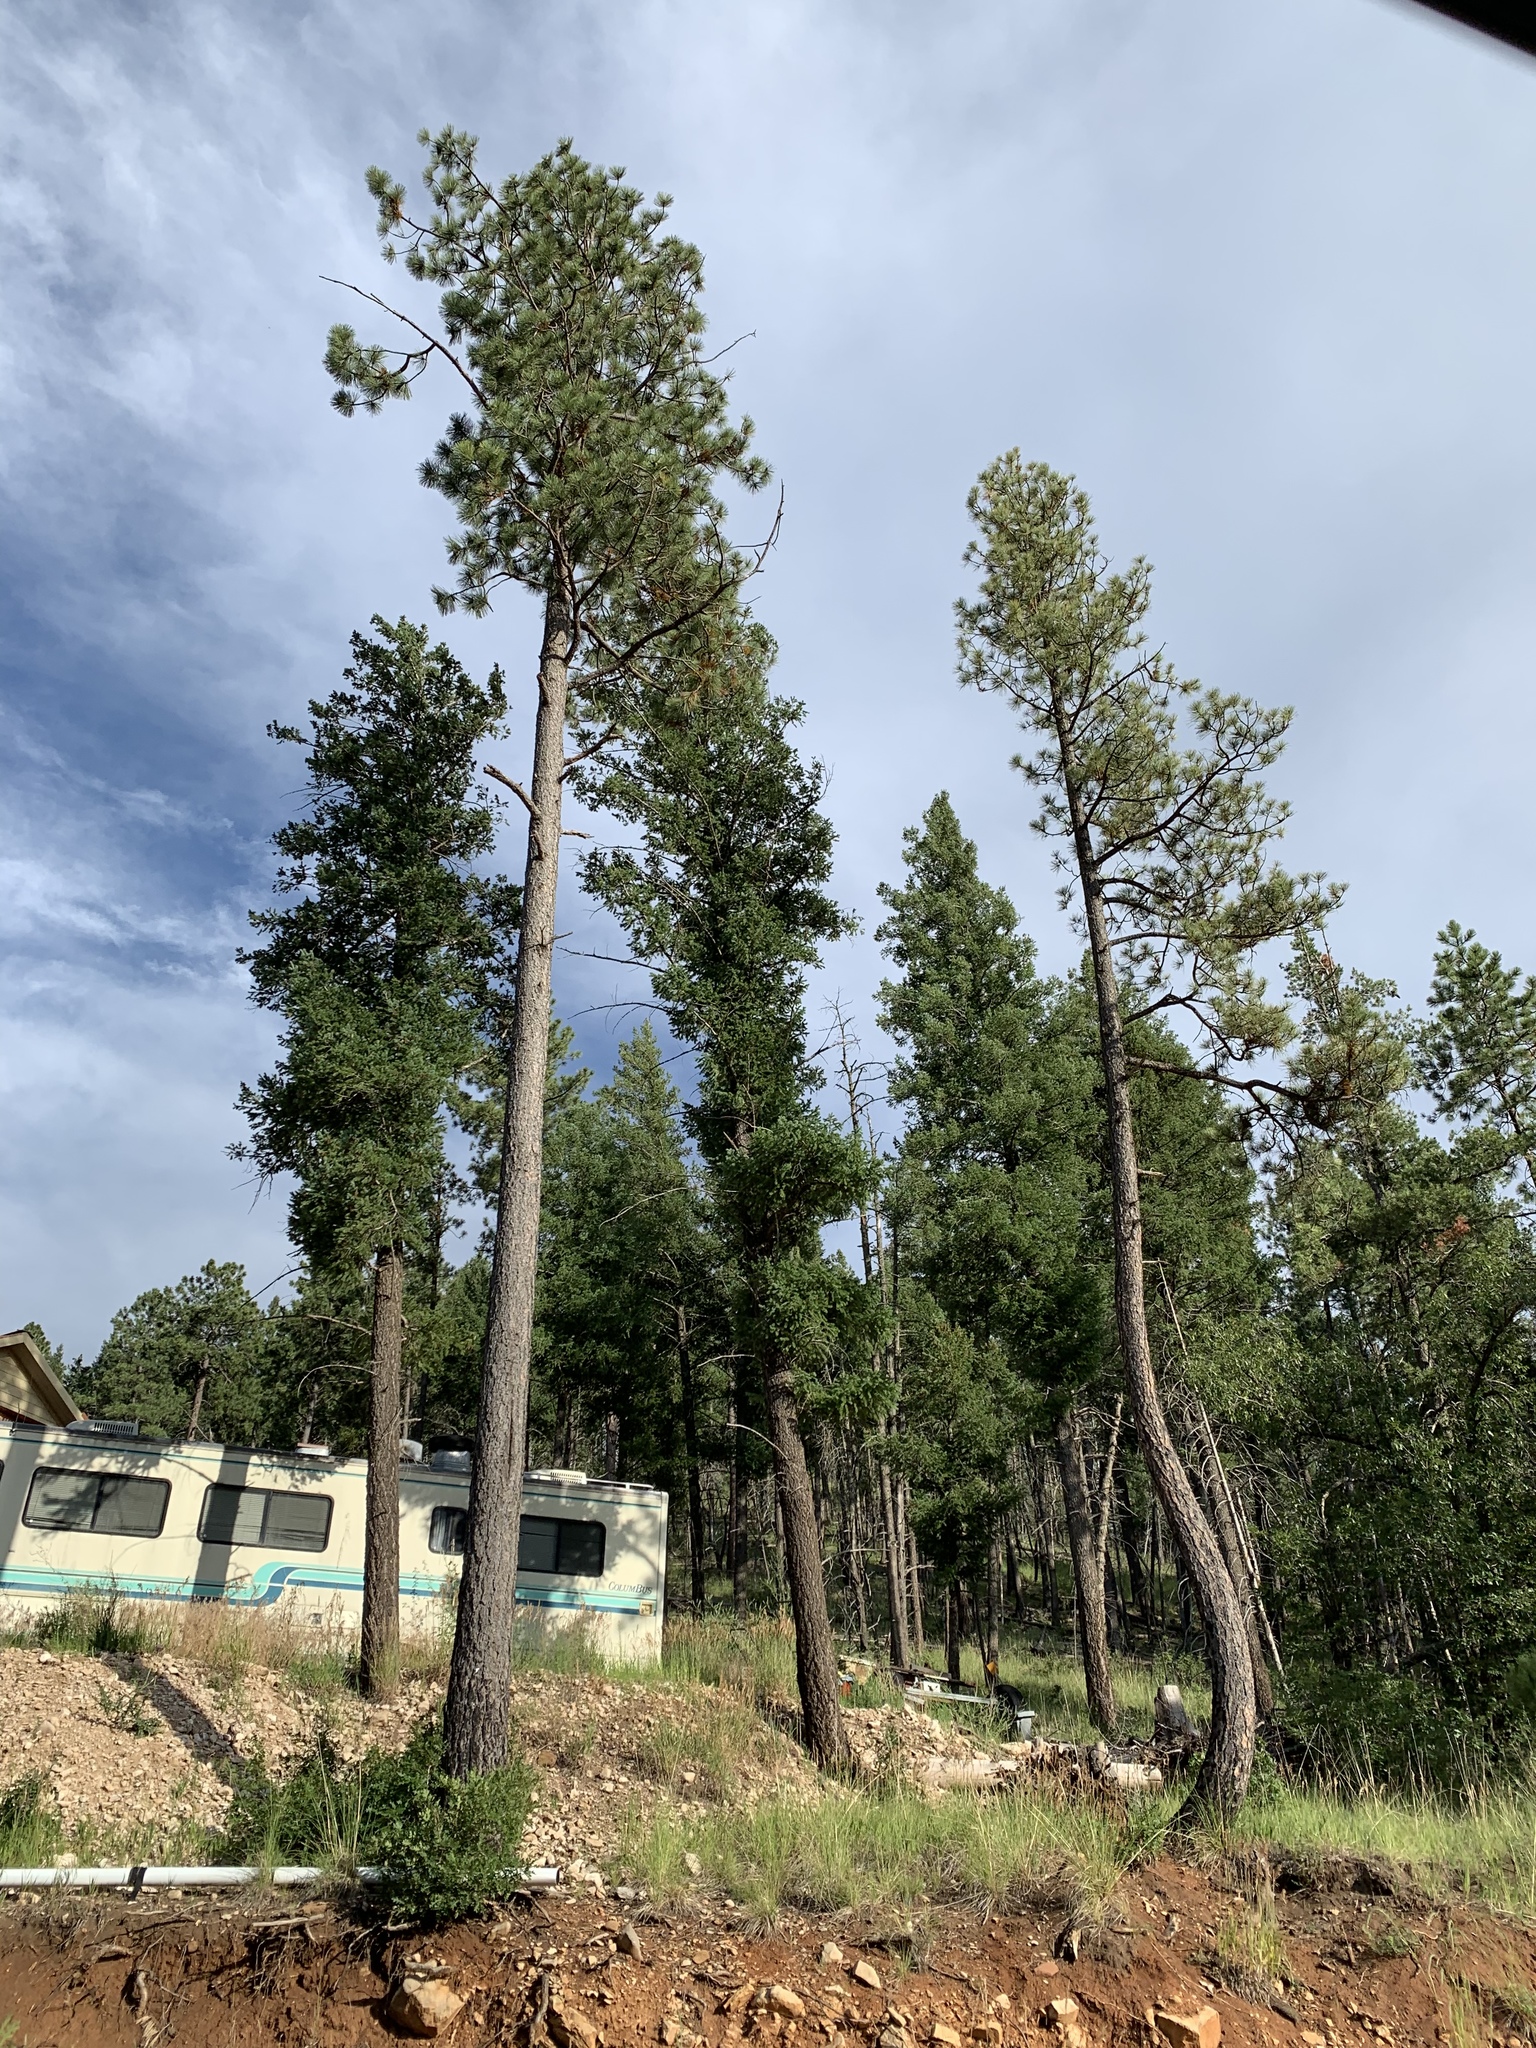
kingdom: Plantae
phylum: Tracheophyta
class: Pinopsida
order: Pinales
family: Pinaceae
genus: Pinus
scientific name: Pinus ponderosa
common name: Western yellow-pine
